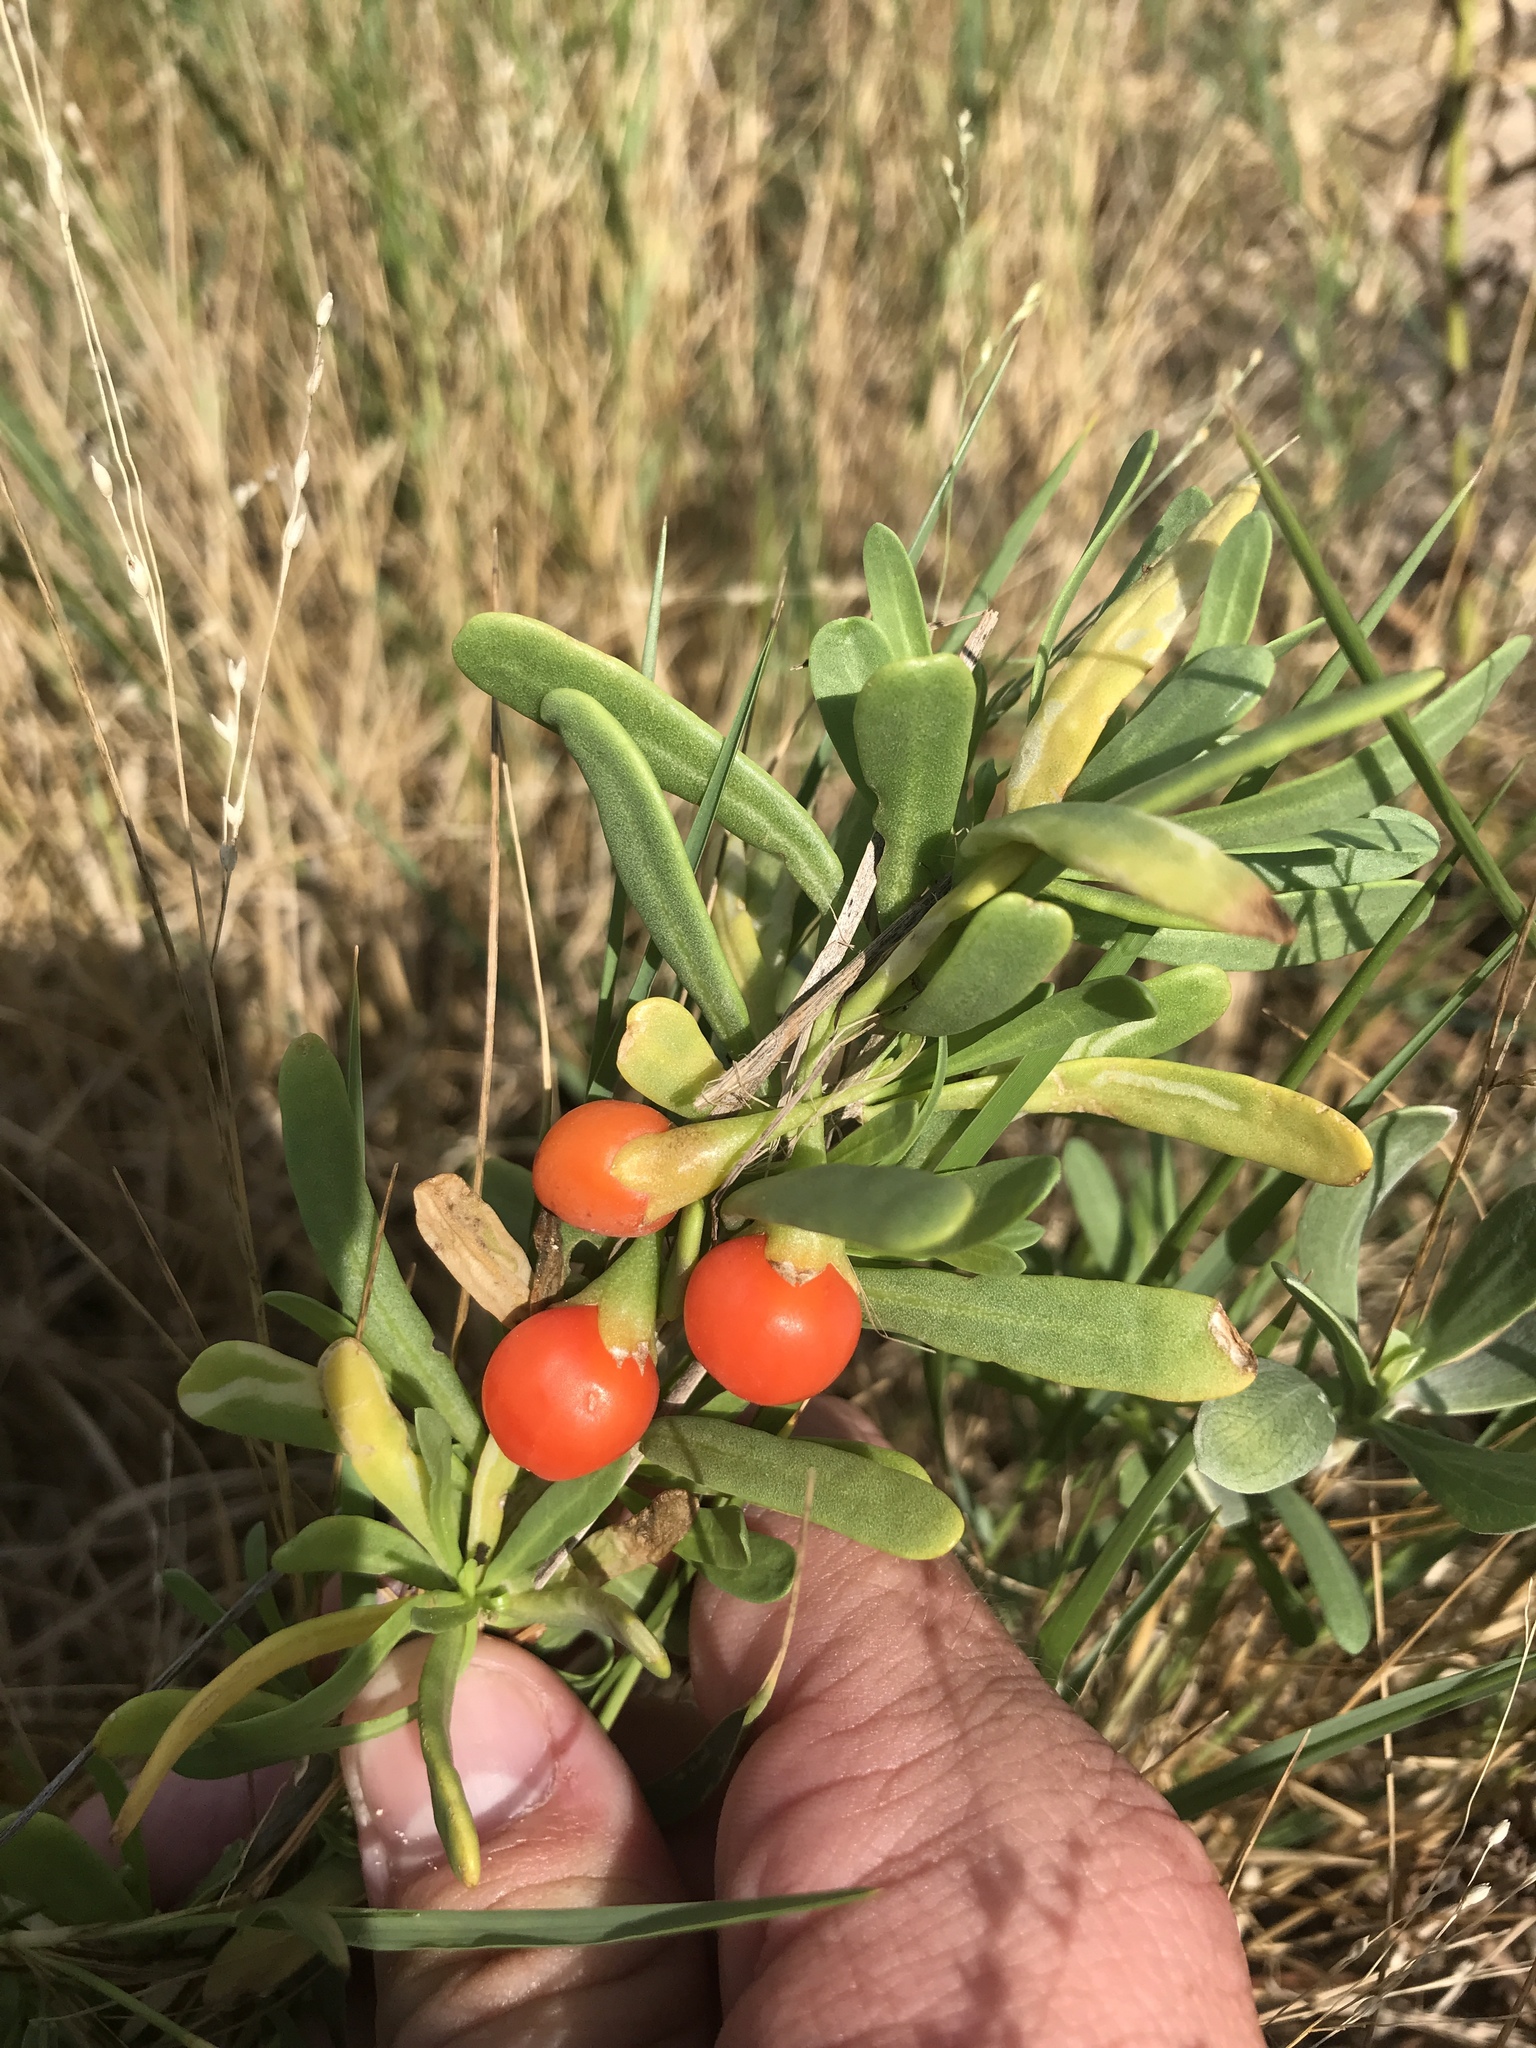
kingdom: Plantae
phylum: Tracheophyta
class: Magnoliopsida
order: Solanales
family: Solanaceae
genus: Lycium
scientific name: Lycium carolinianum
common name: Christmasberry
